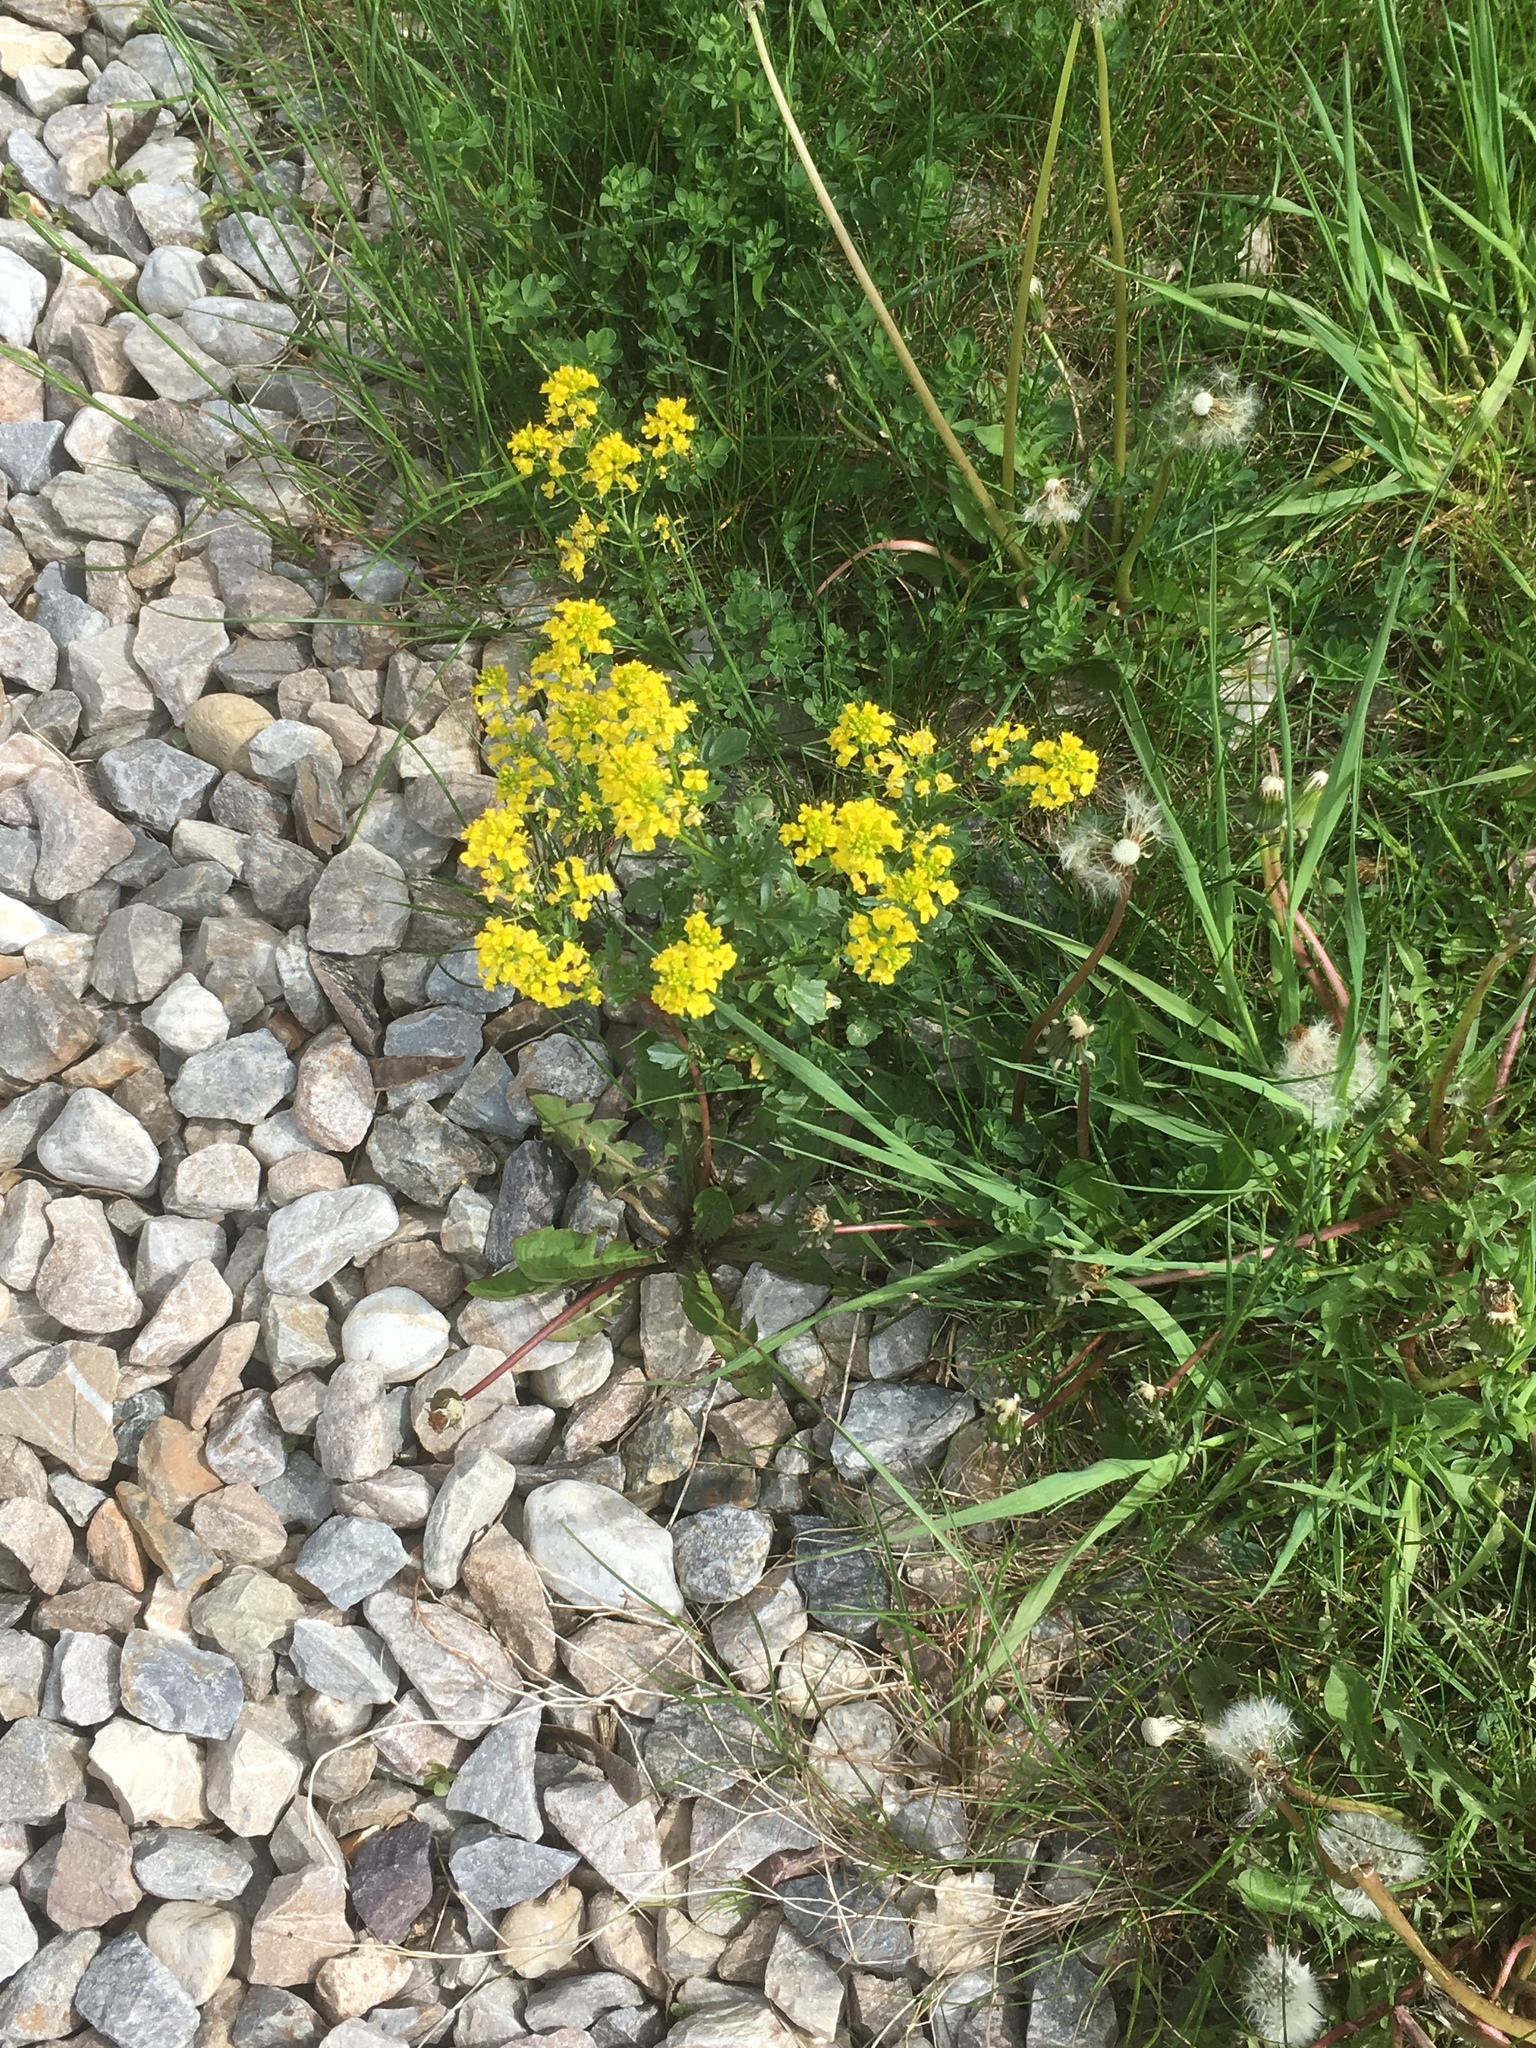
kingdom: Plantae
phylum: Tracheophyta
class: Magnoliopsida
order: Brassicales
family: Brassicaceae
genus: Barbarea
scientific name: Barbarea vulgaris
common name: Cressy-greens
